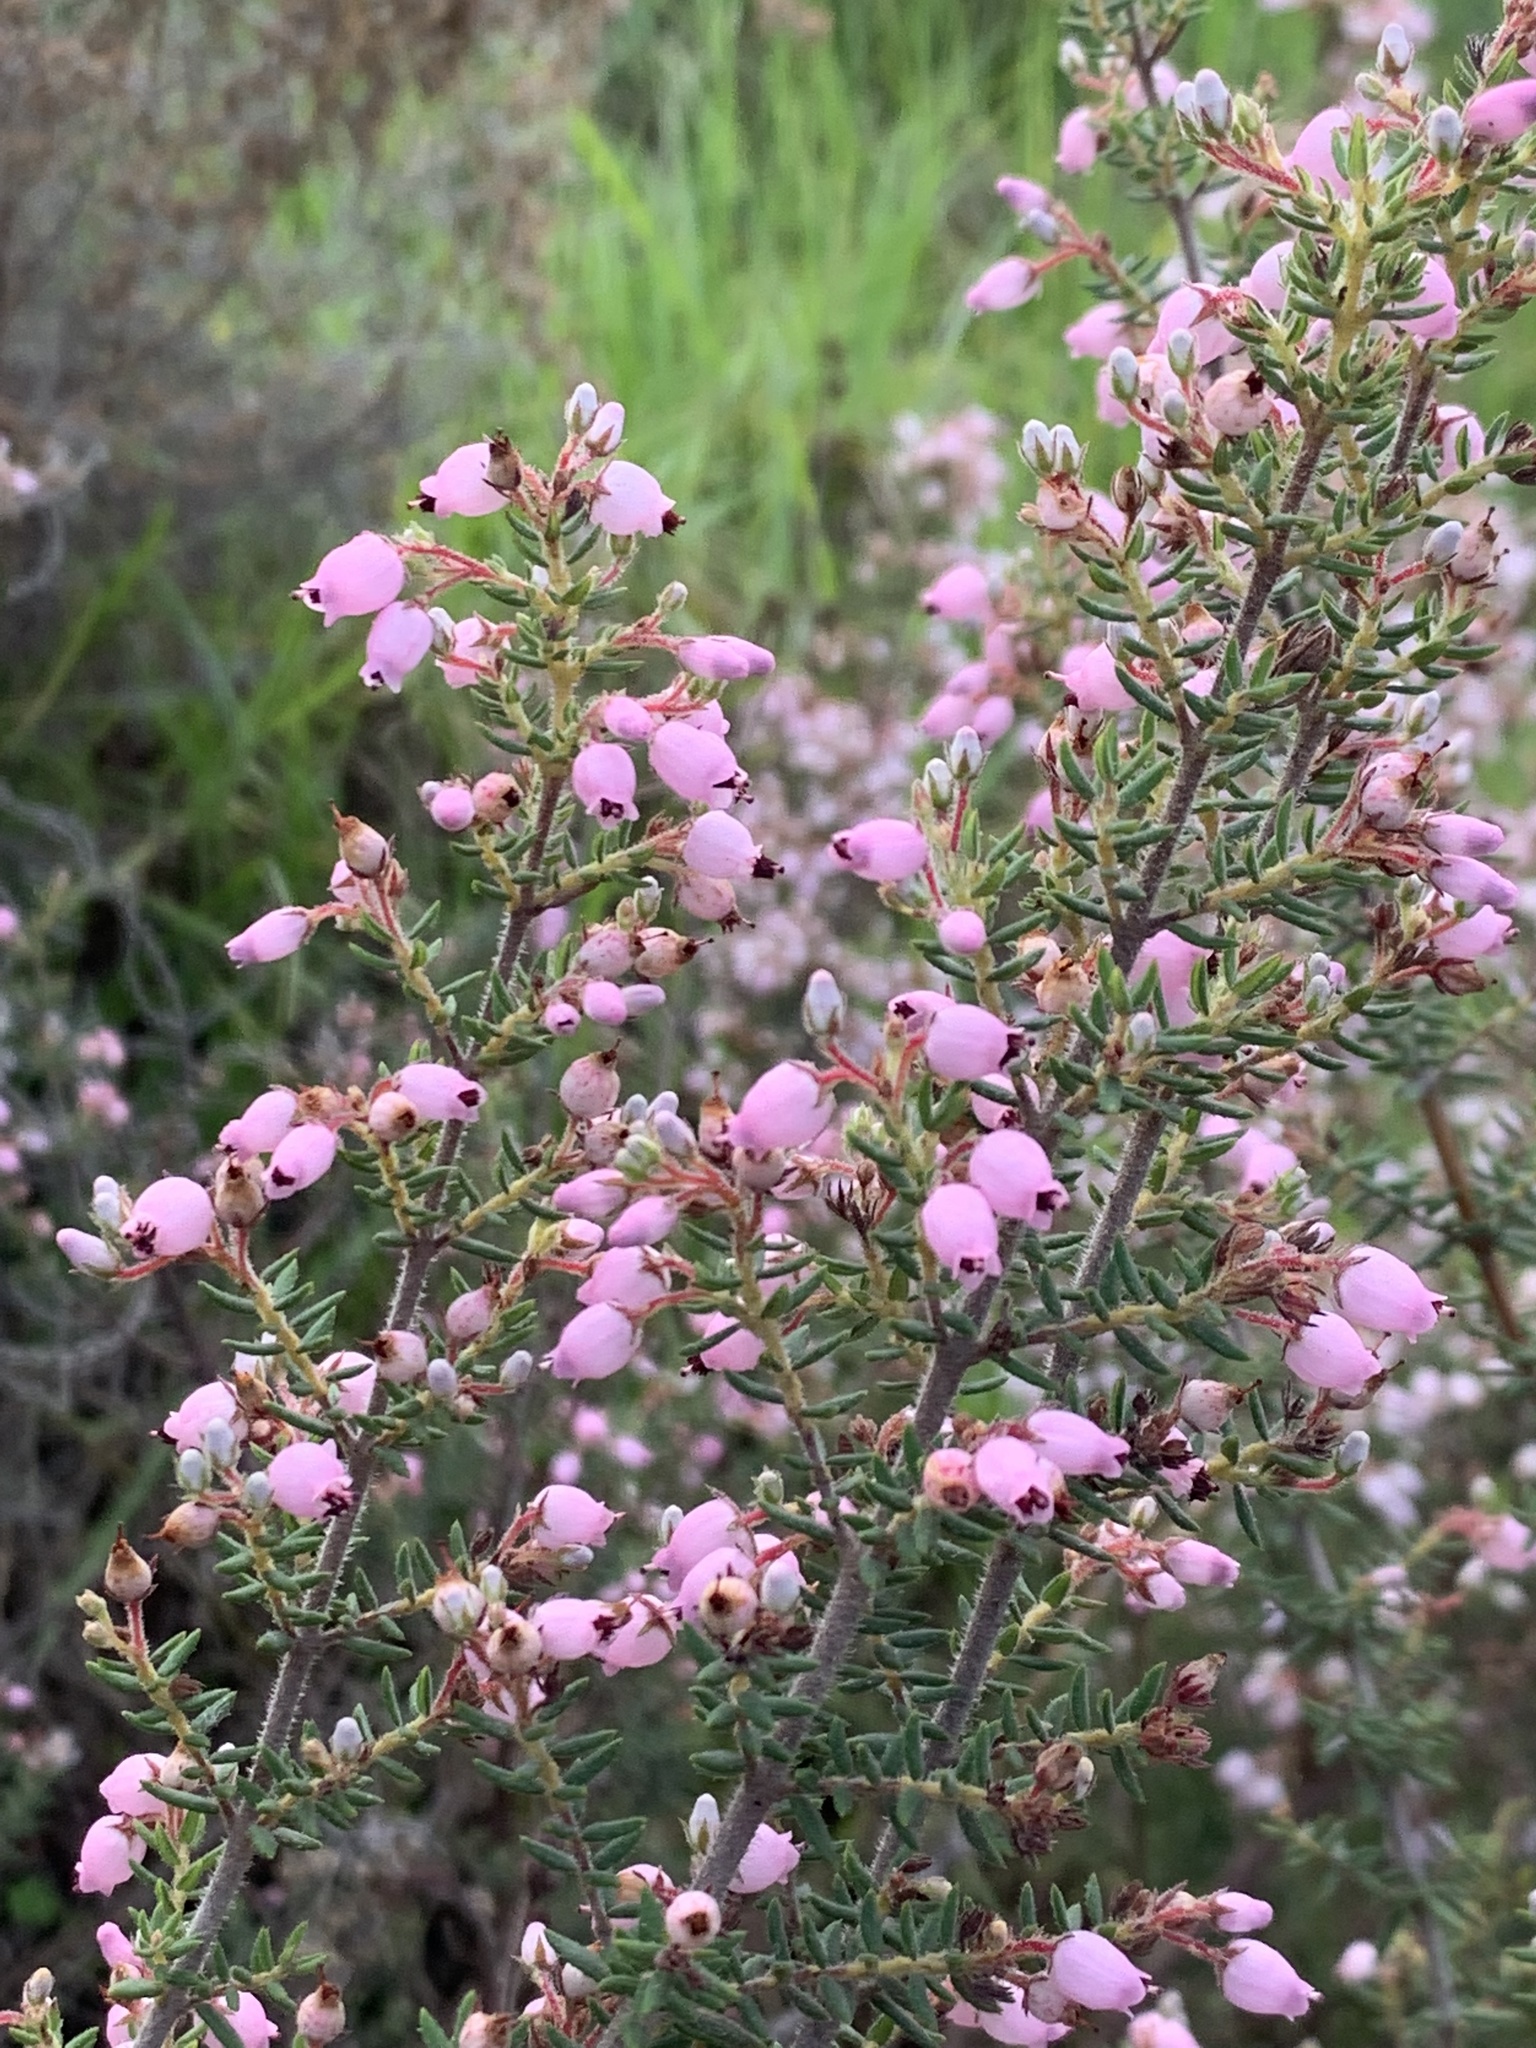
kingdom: Plantae
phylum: Tracheophyta
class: Magnoliopsida
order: Ericales
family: Ericaceae
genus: Erica
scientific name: Erica hirta
